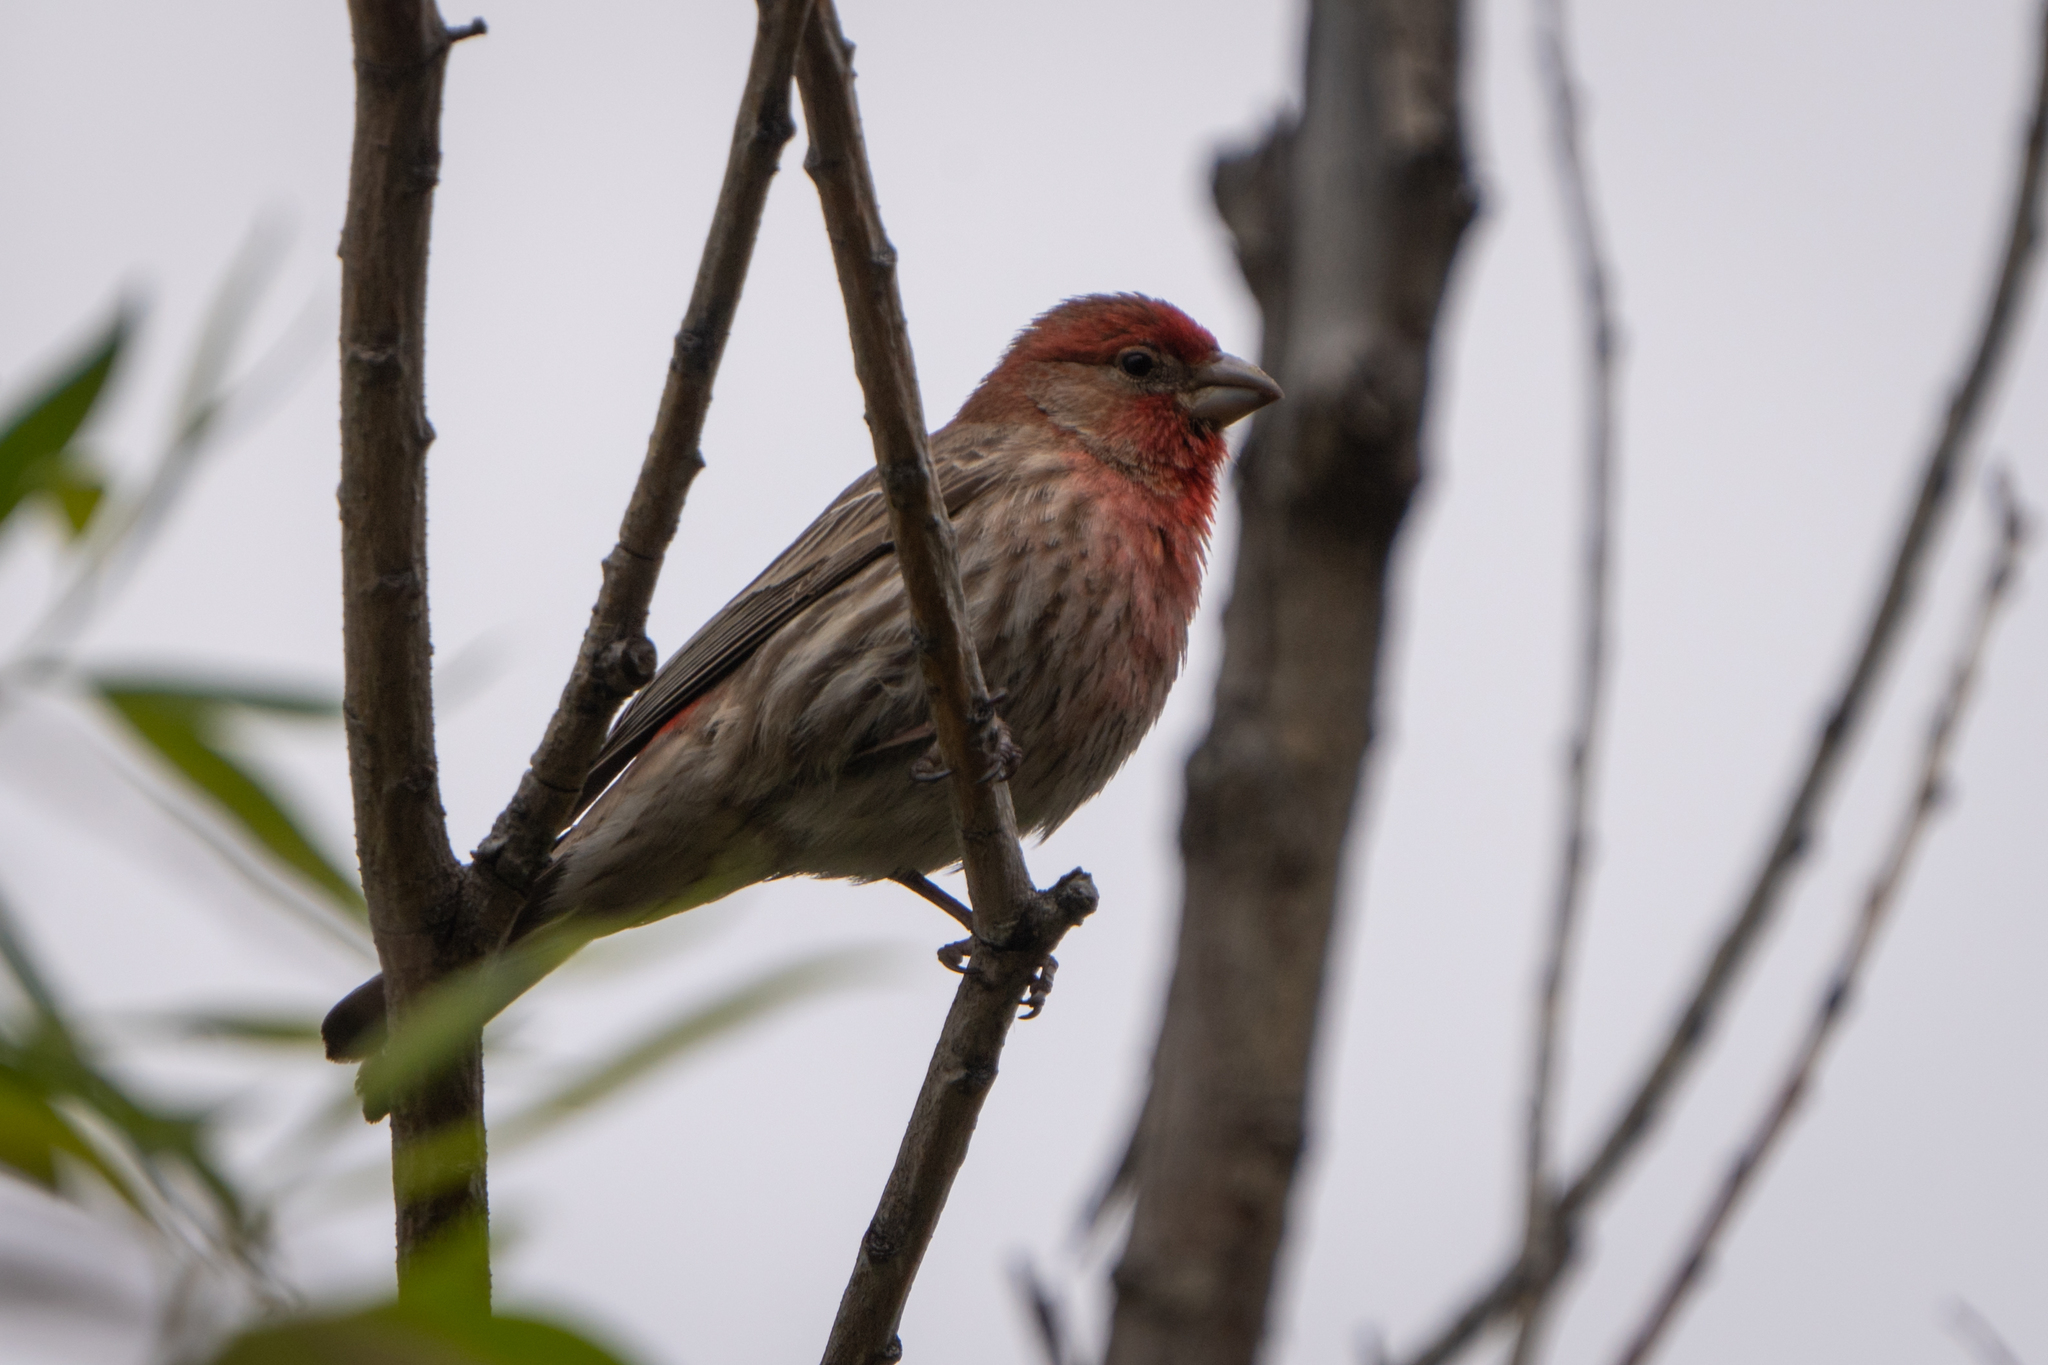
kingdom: Animalia
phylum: Chordata
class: Aves
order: Passeriformes
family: Fringillidae
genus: Haemorhous
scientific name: Haemorhous mexicanus
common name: House finch
